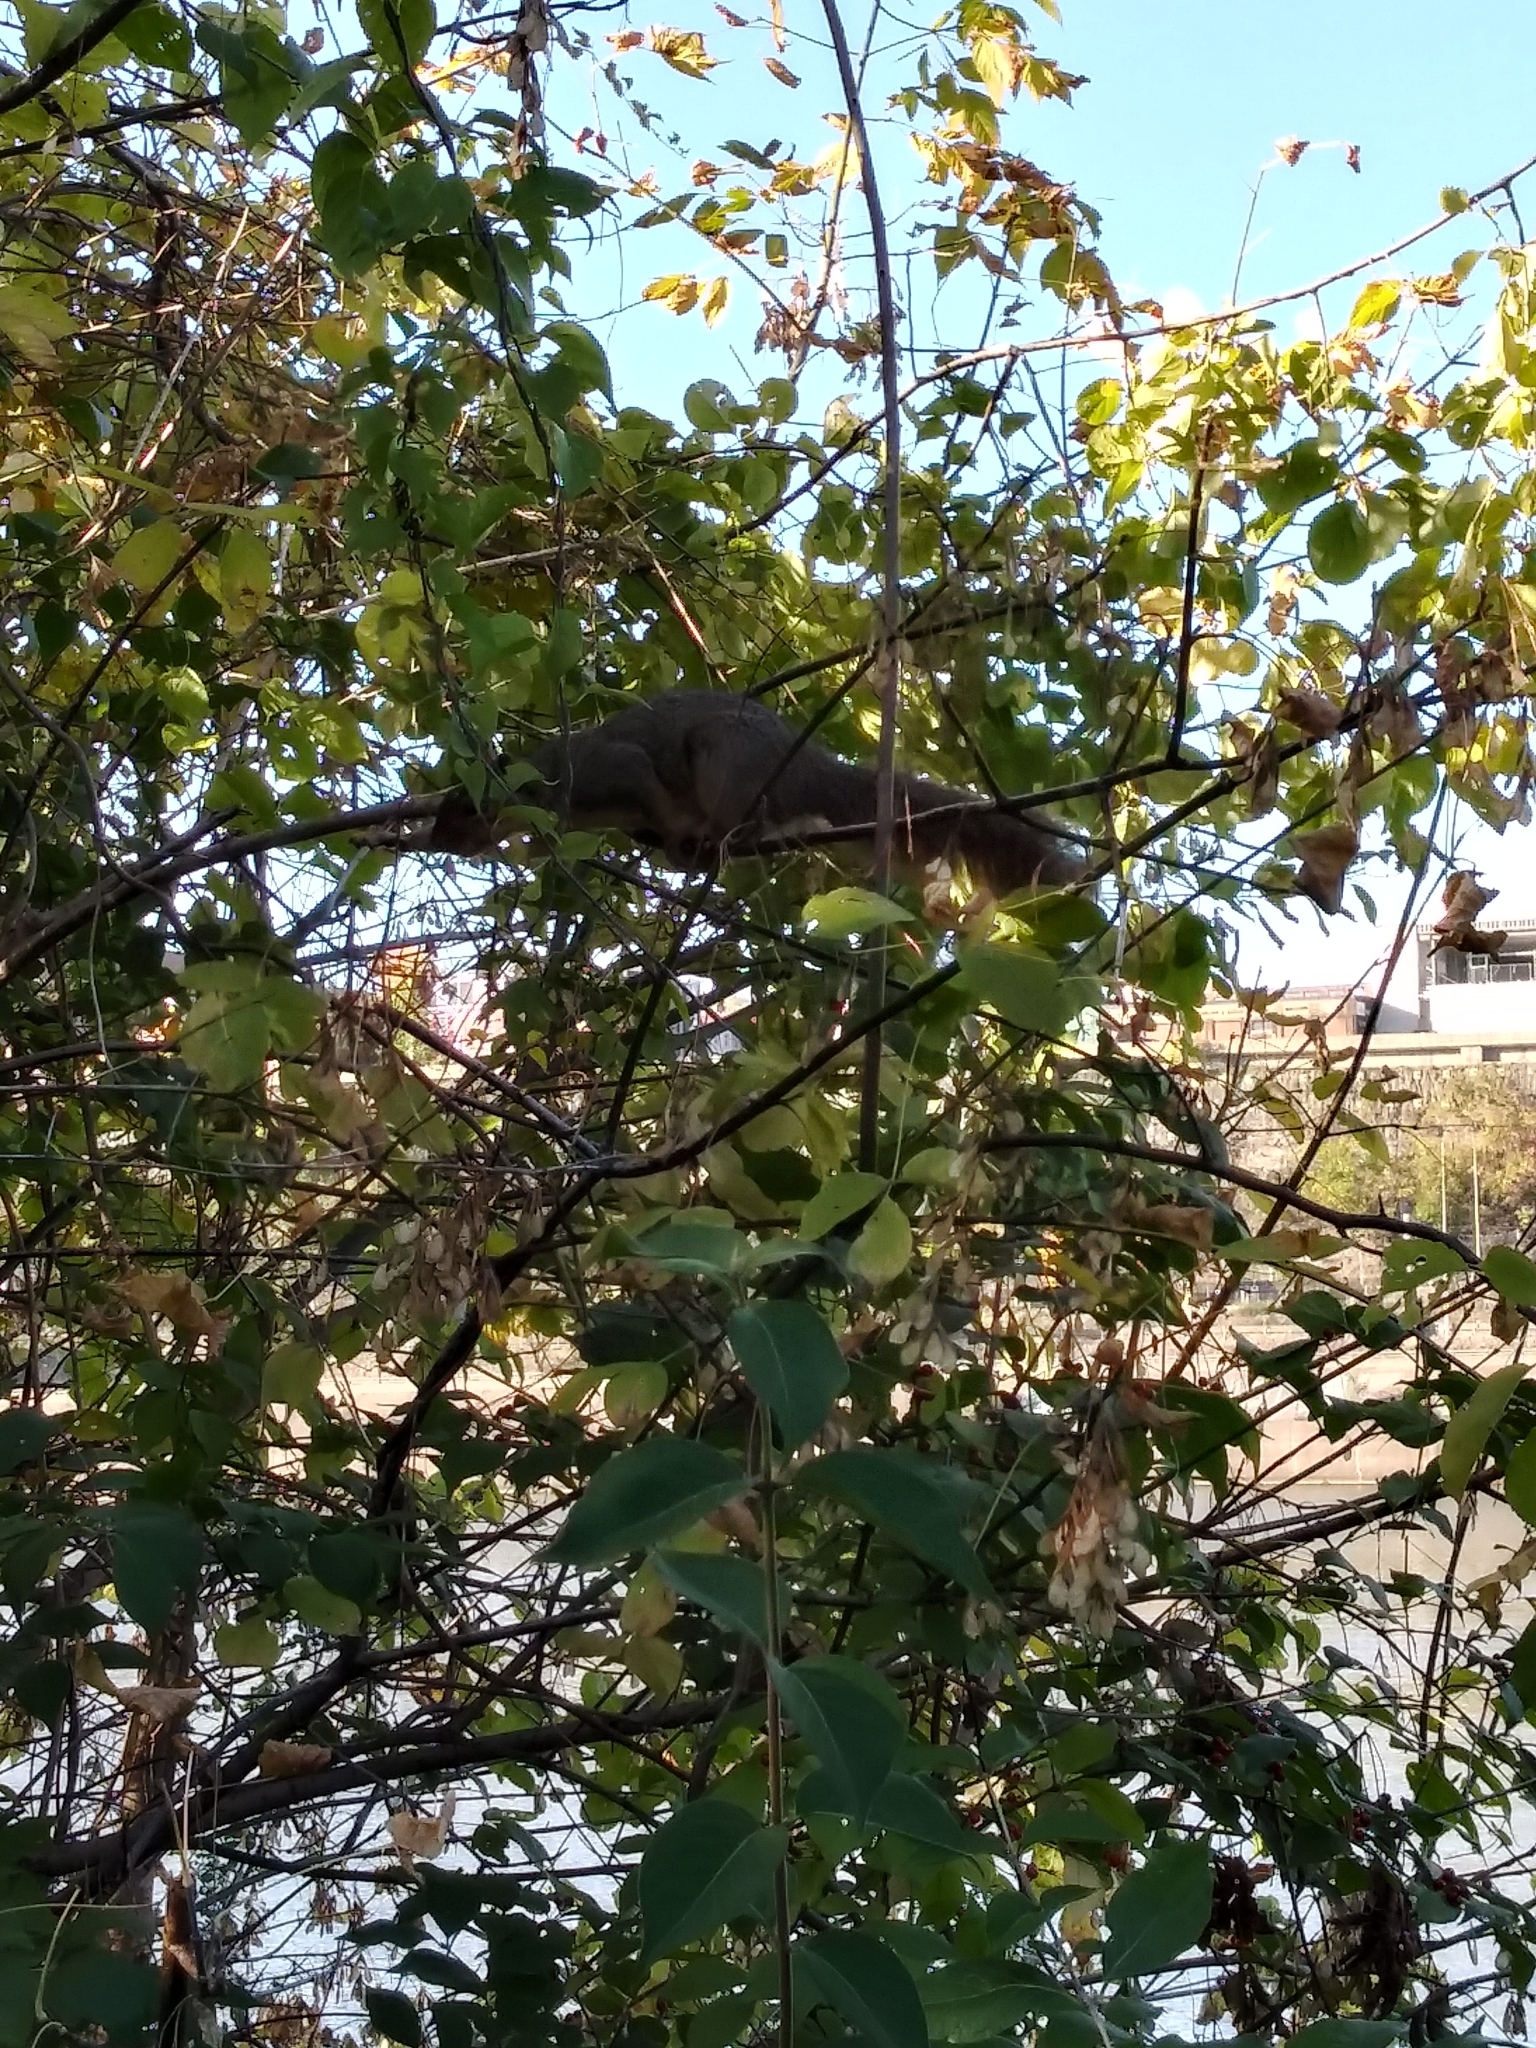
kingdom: Animalia
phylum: Chordata
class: Mammalia
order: Rodentia
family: Sciuridae
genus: Sciurus
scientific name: Sciurus niger
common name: Fox squirrel
